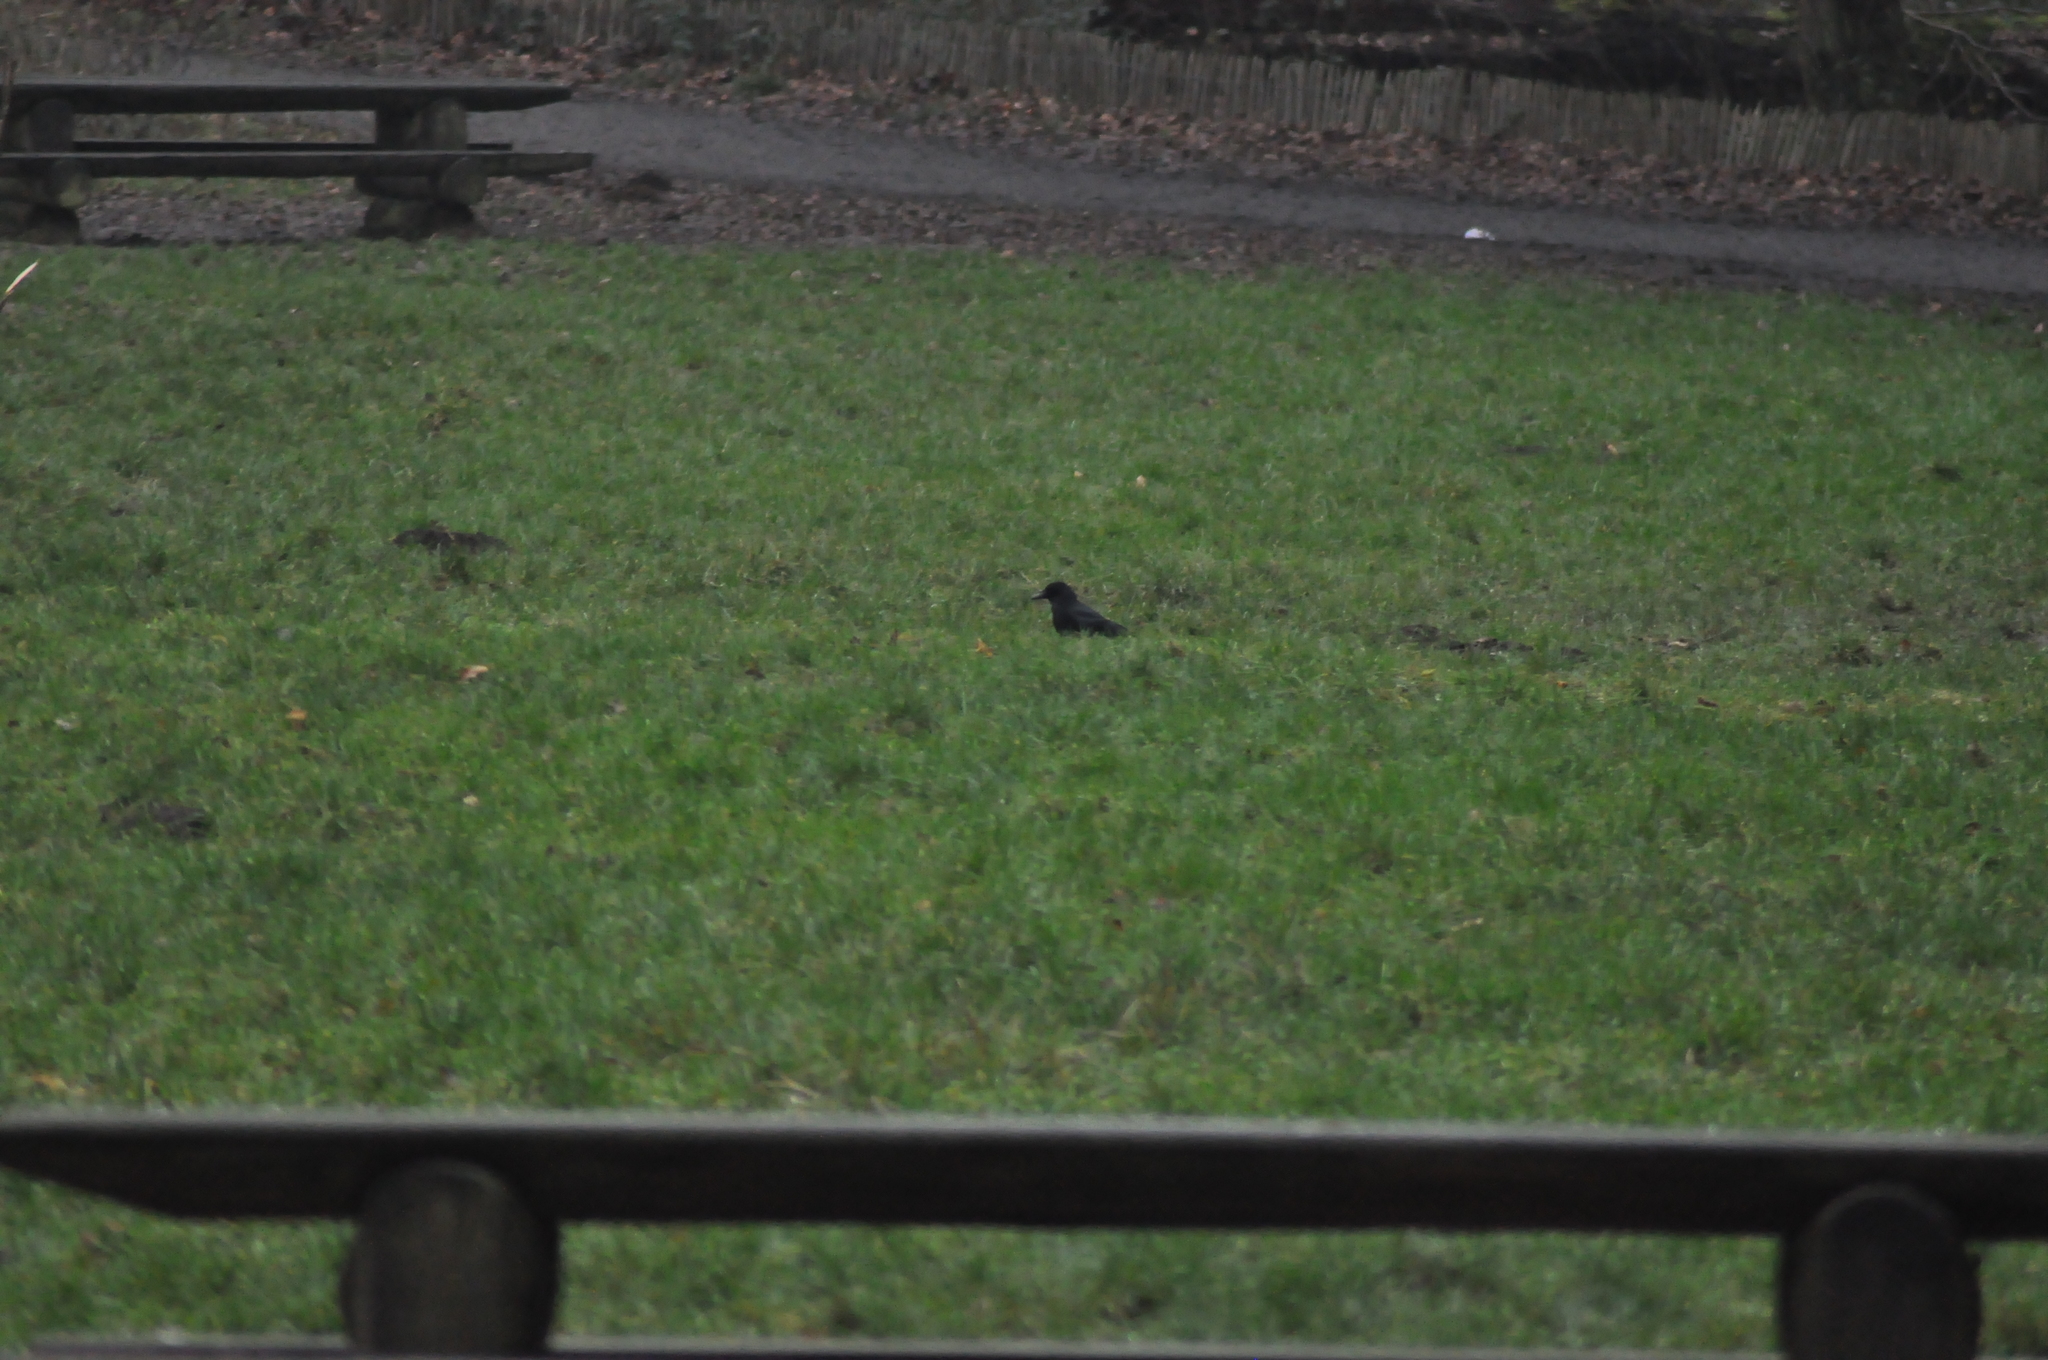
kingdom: Animalia
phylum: Chordata
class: Aves
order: Passeriformes
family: Corvidae
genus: Corvus
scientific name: Corvus corone
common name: Carrion crow
